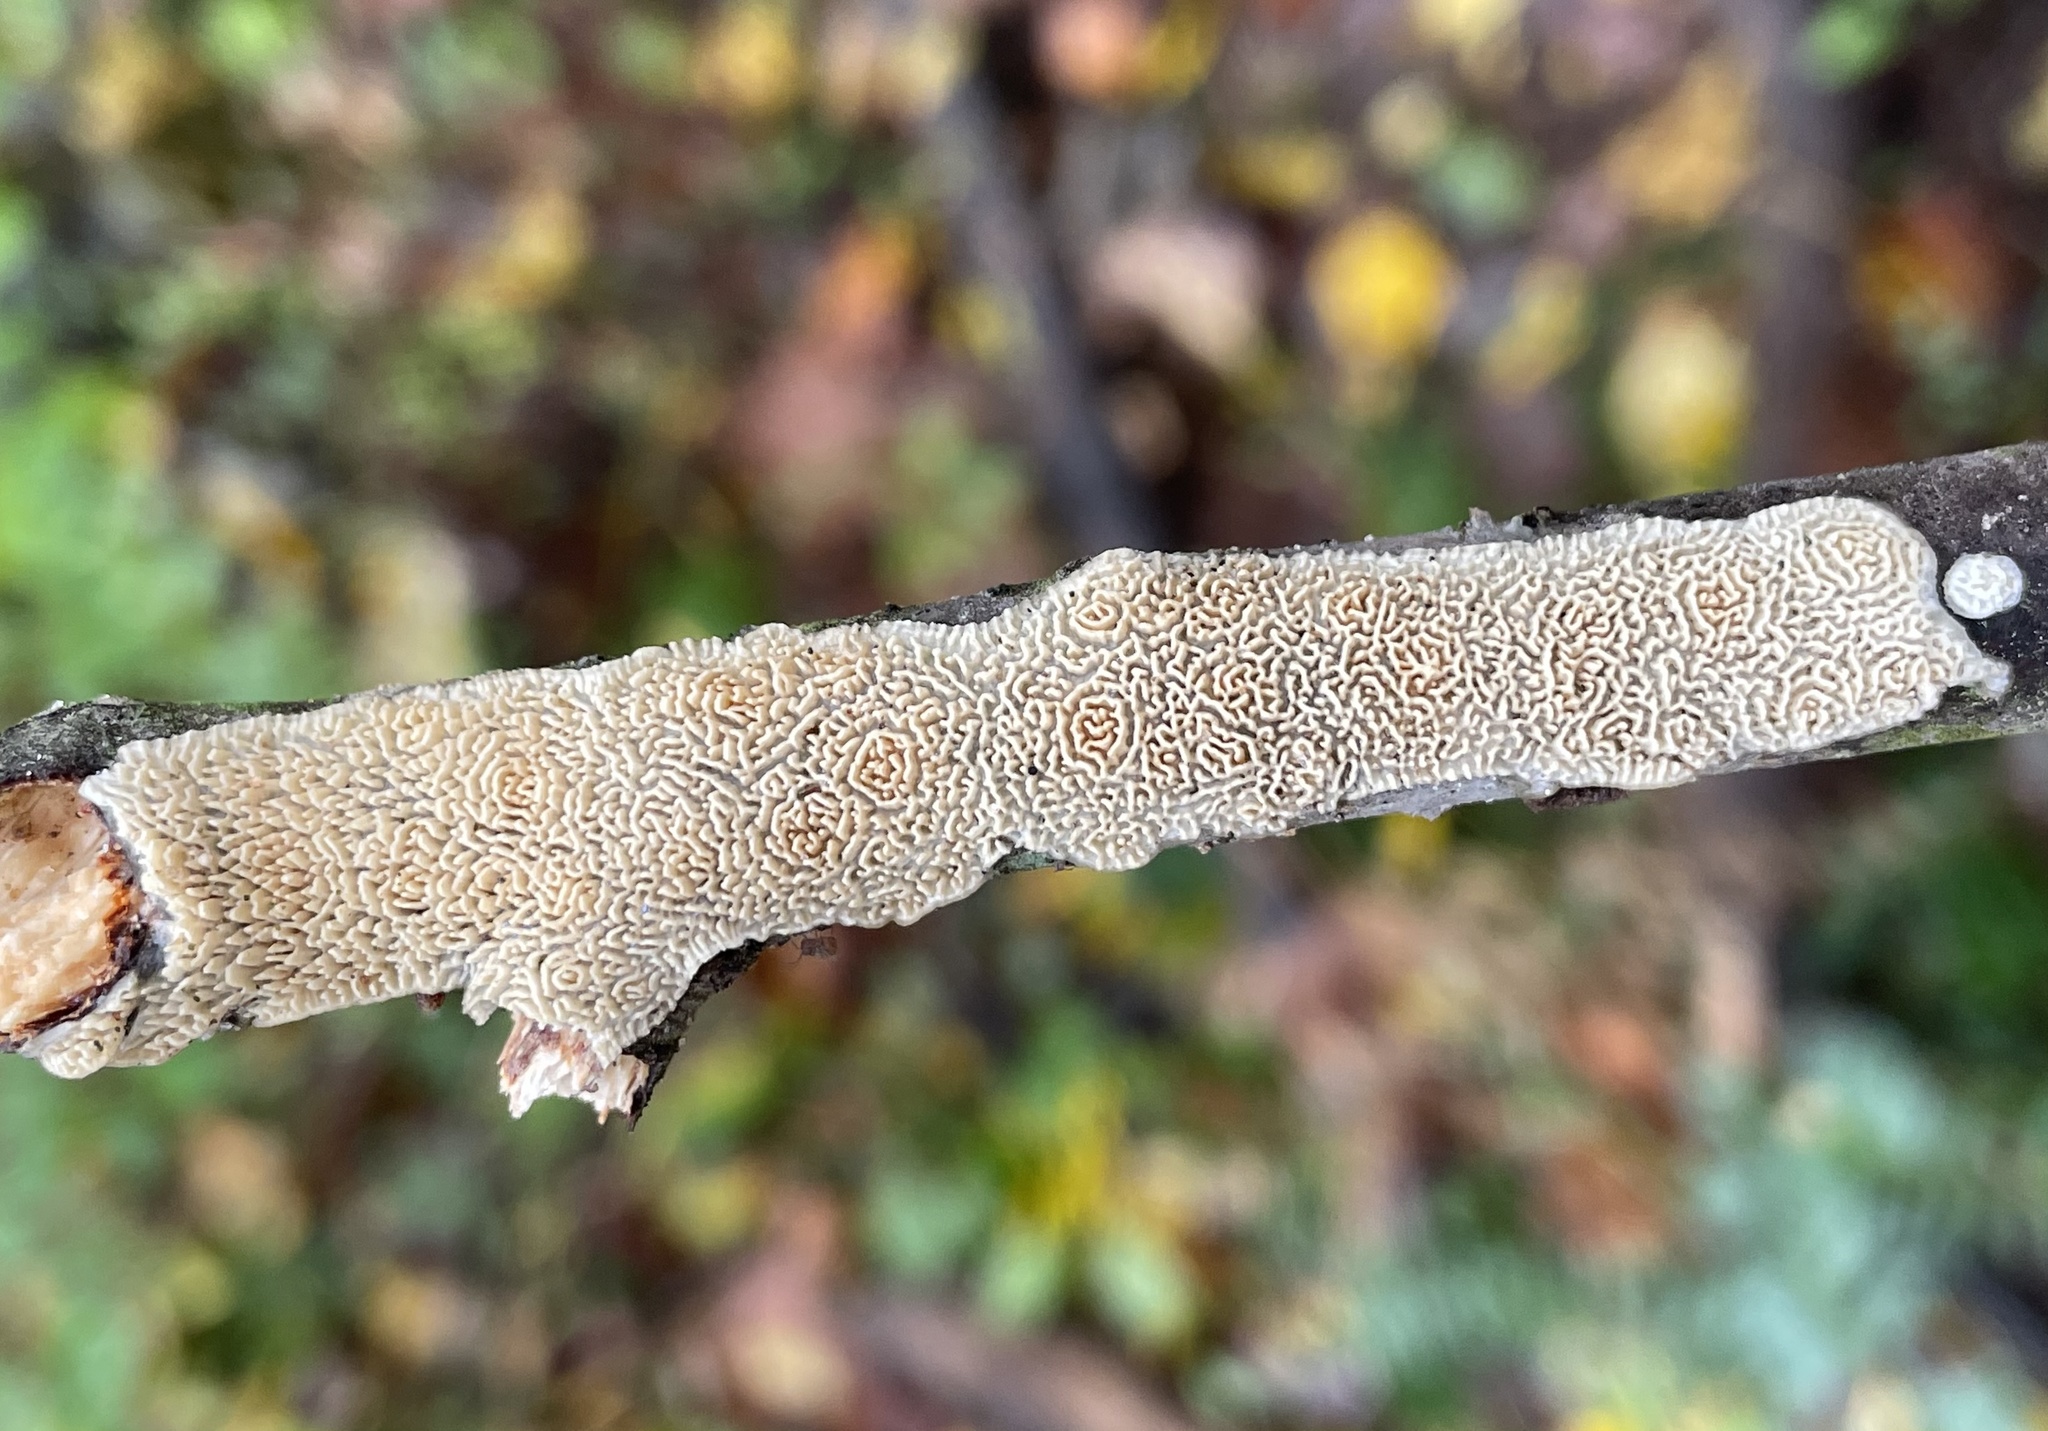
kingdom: Fungi
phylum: Basidiomycota
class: Agaricomycetes
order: Polyporales
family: Irpicaceae
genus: Irpex
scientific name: Irpex lacteus
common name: Milk-white toothed polypore
